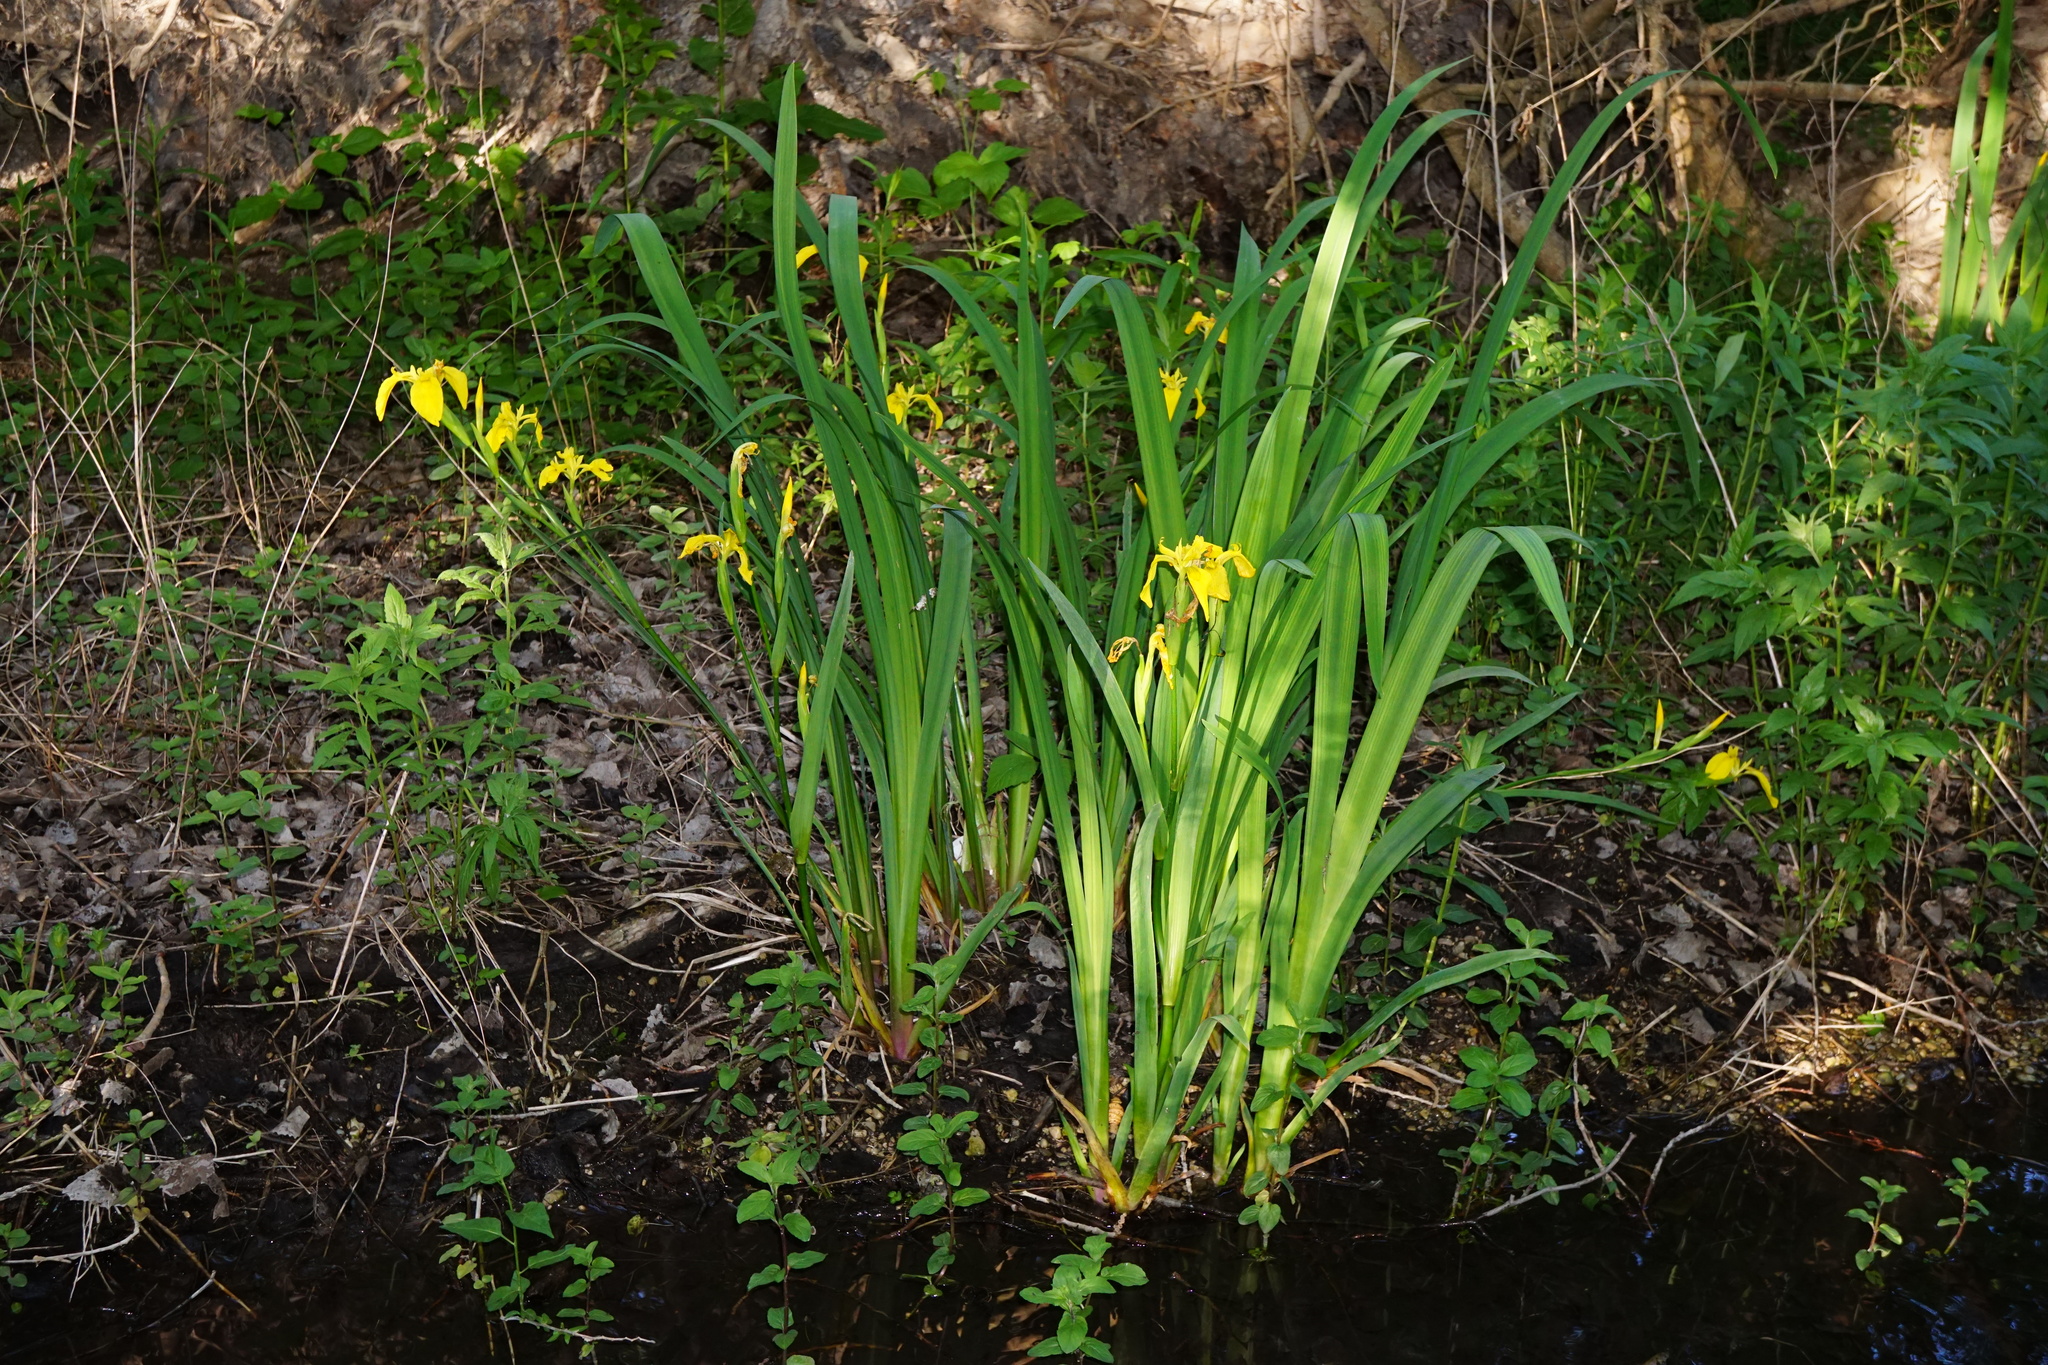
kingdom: Plantae
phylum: Tracheophyta
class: Liliopsida
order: Asparagales
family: Iridaceae
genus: Iris
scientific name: Iris pseudacorus
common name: Yellow flag
